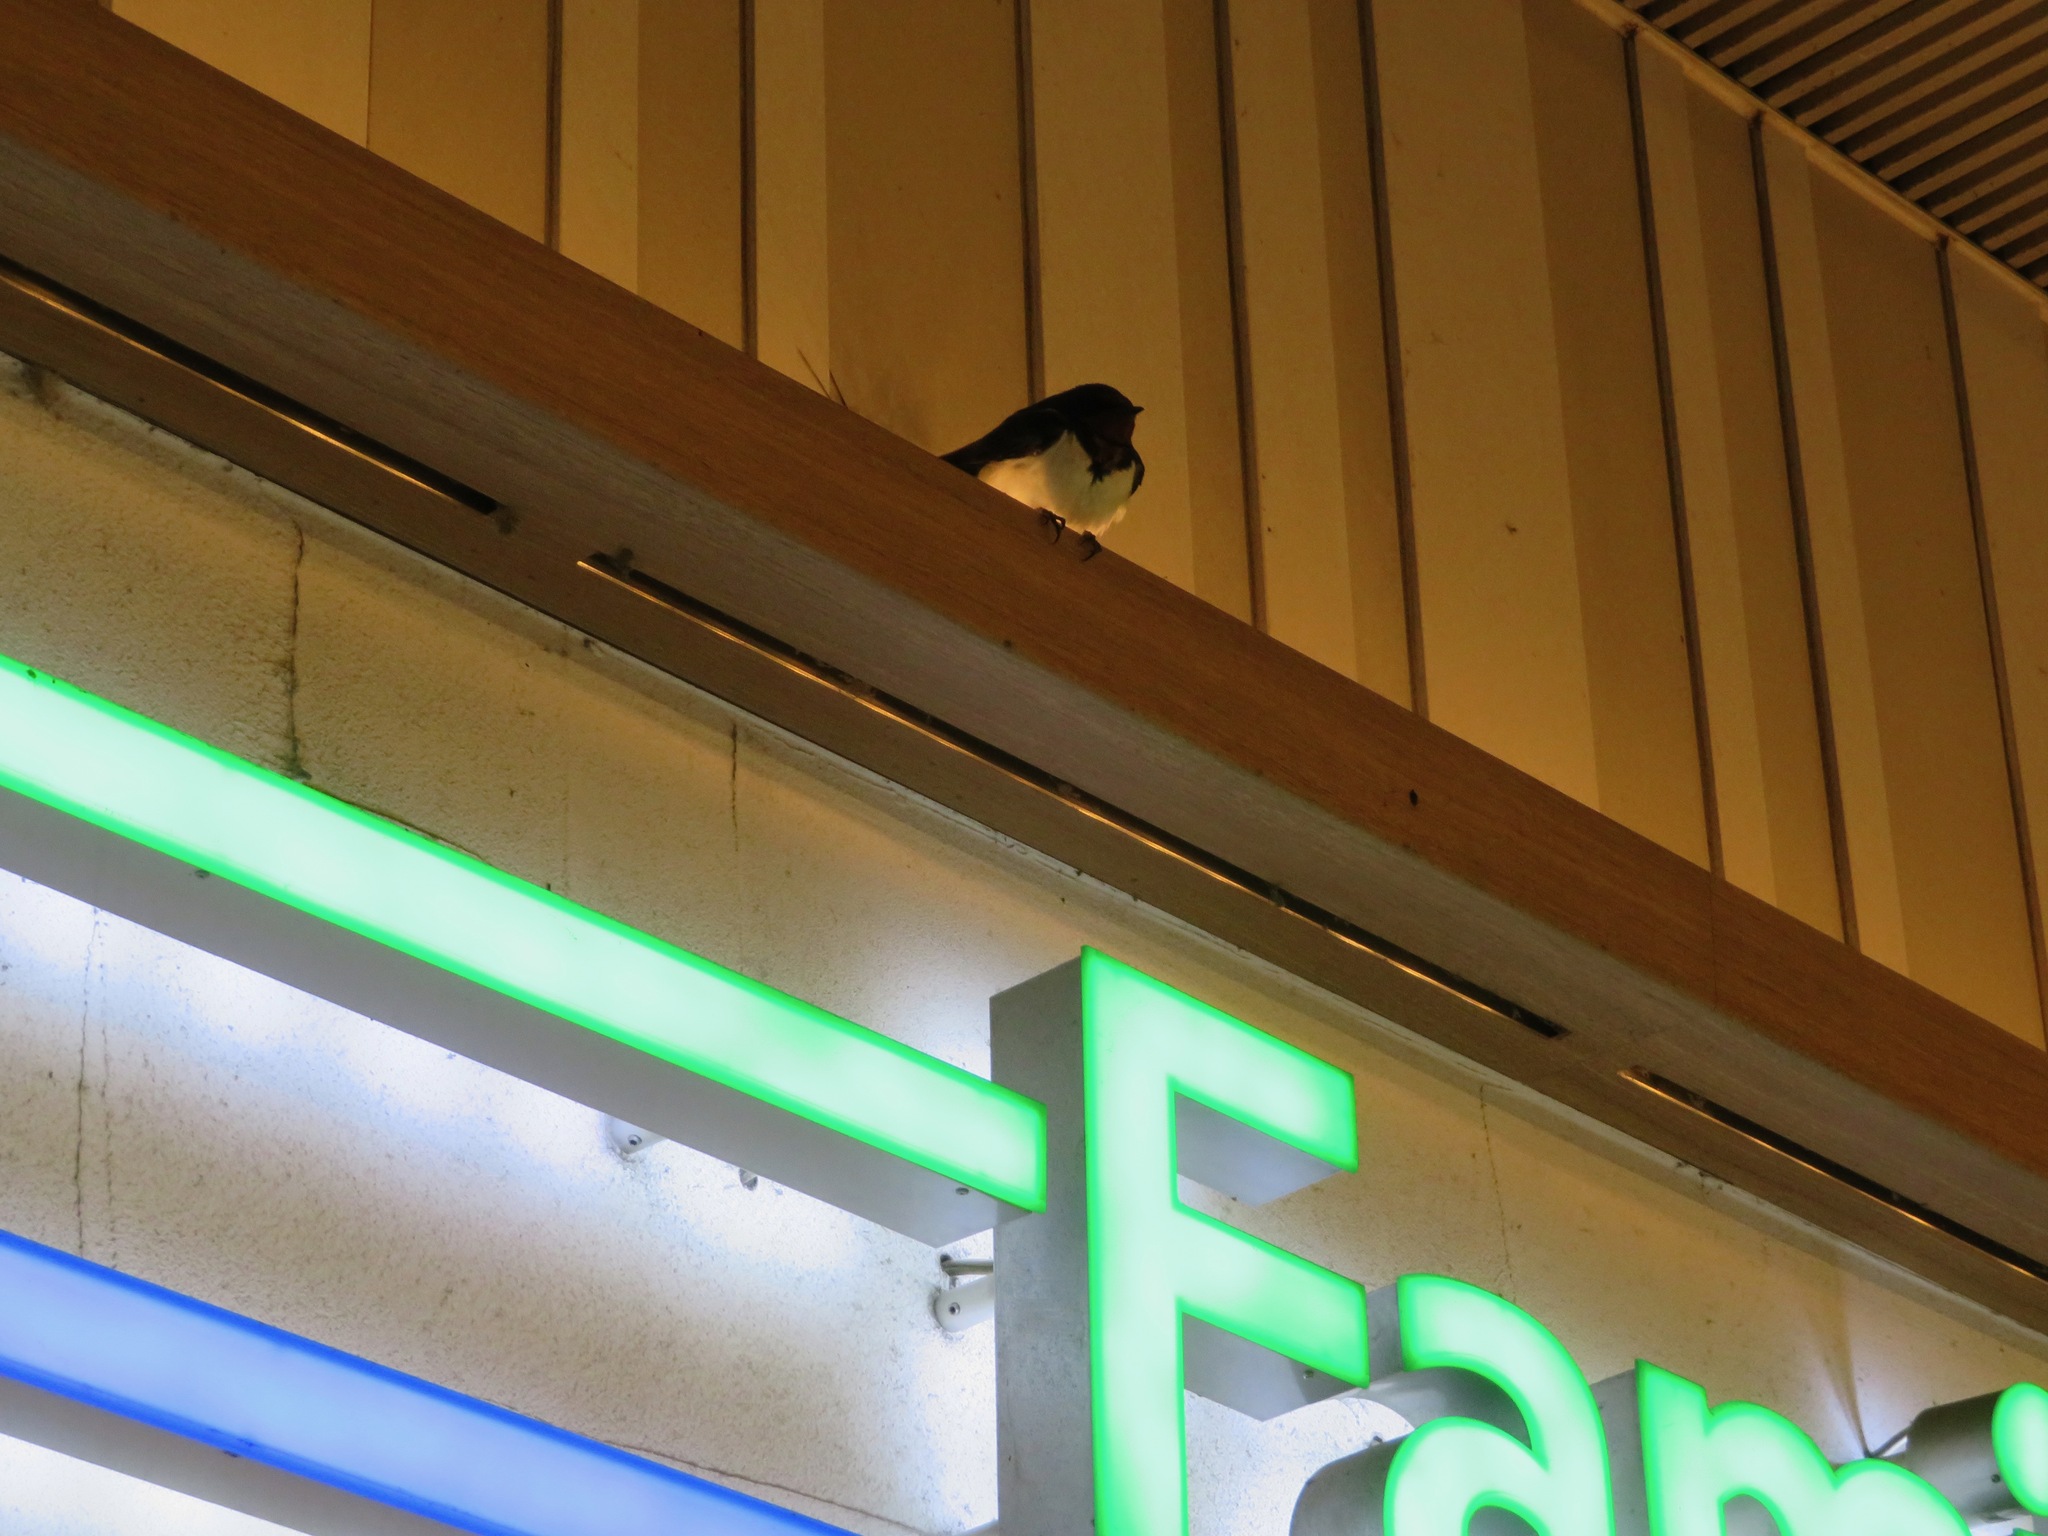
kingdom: Animalia
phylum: Chordata
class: Aves
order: Passeriformes
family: Hirundinidae
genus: Hirundo
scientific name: Hirundo rustica
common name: Barn swallow
